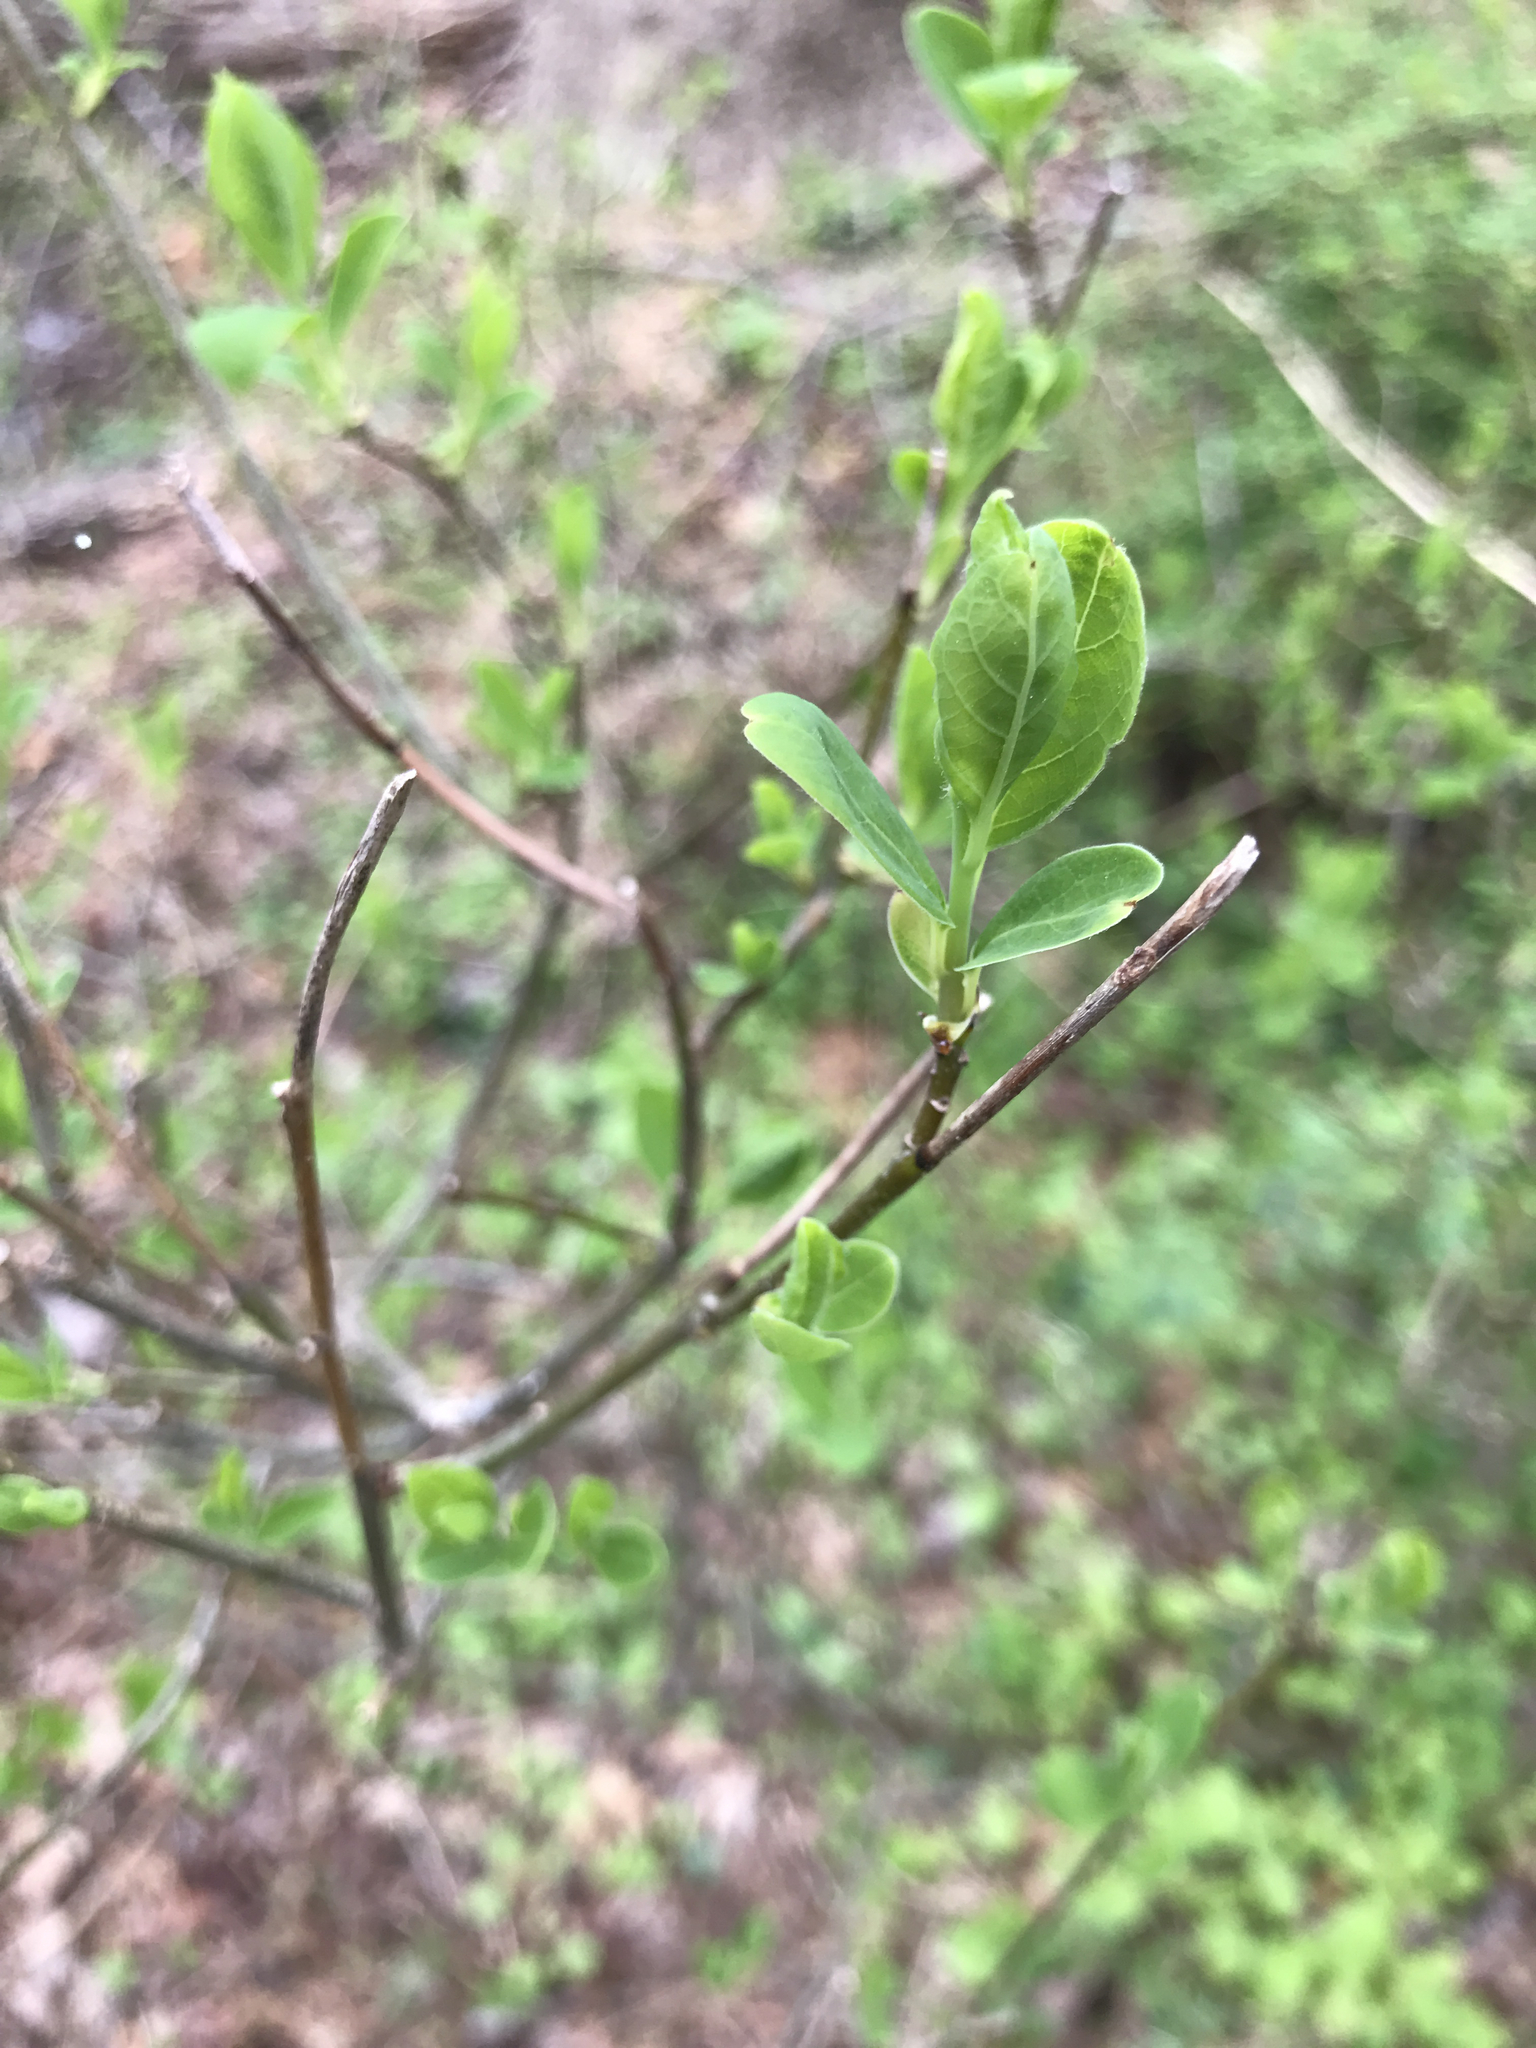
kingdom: Plantae
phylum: Tracheophyta
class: Magnoliopsida
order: Laurales
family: Lauraceae
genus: Lindera
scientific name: Lindera benzoin
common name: Spicebush
